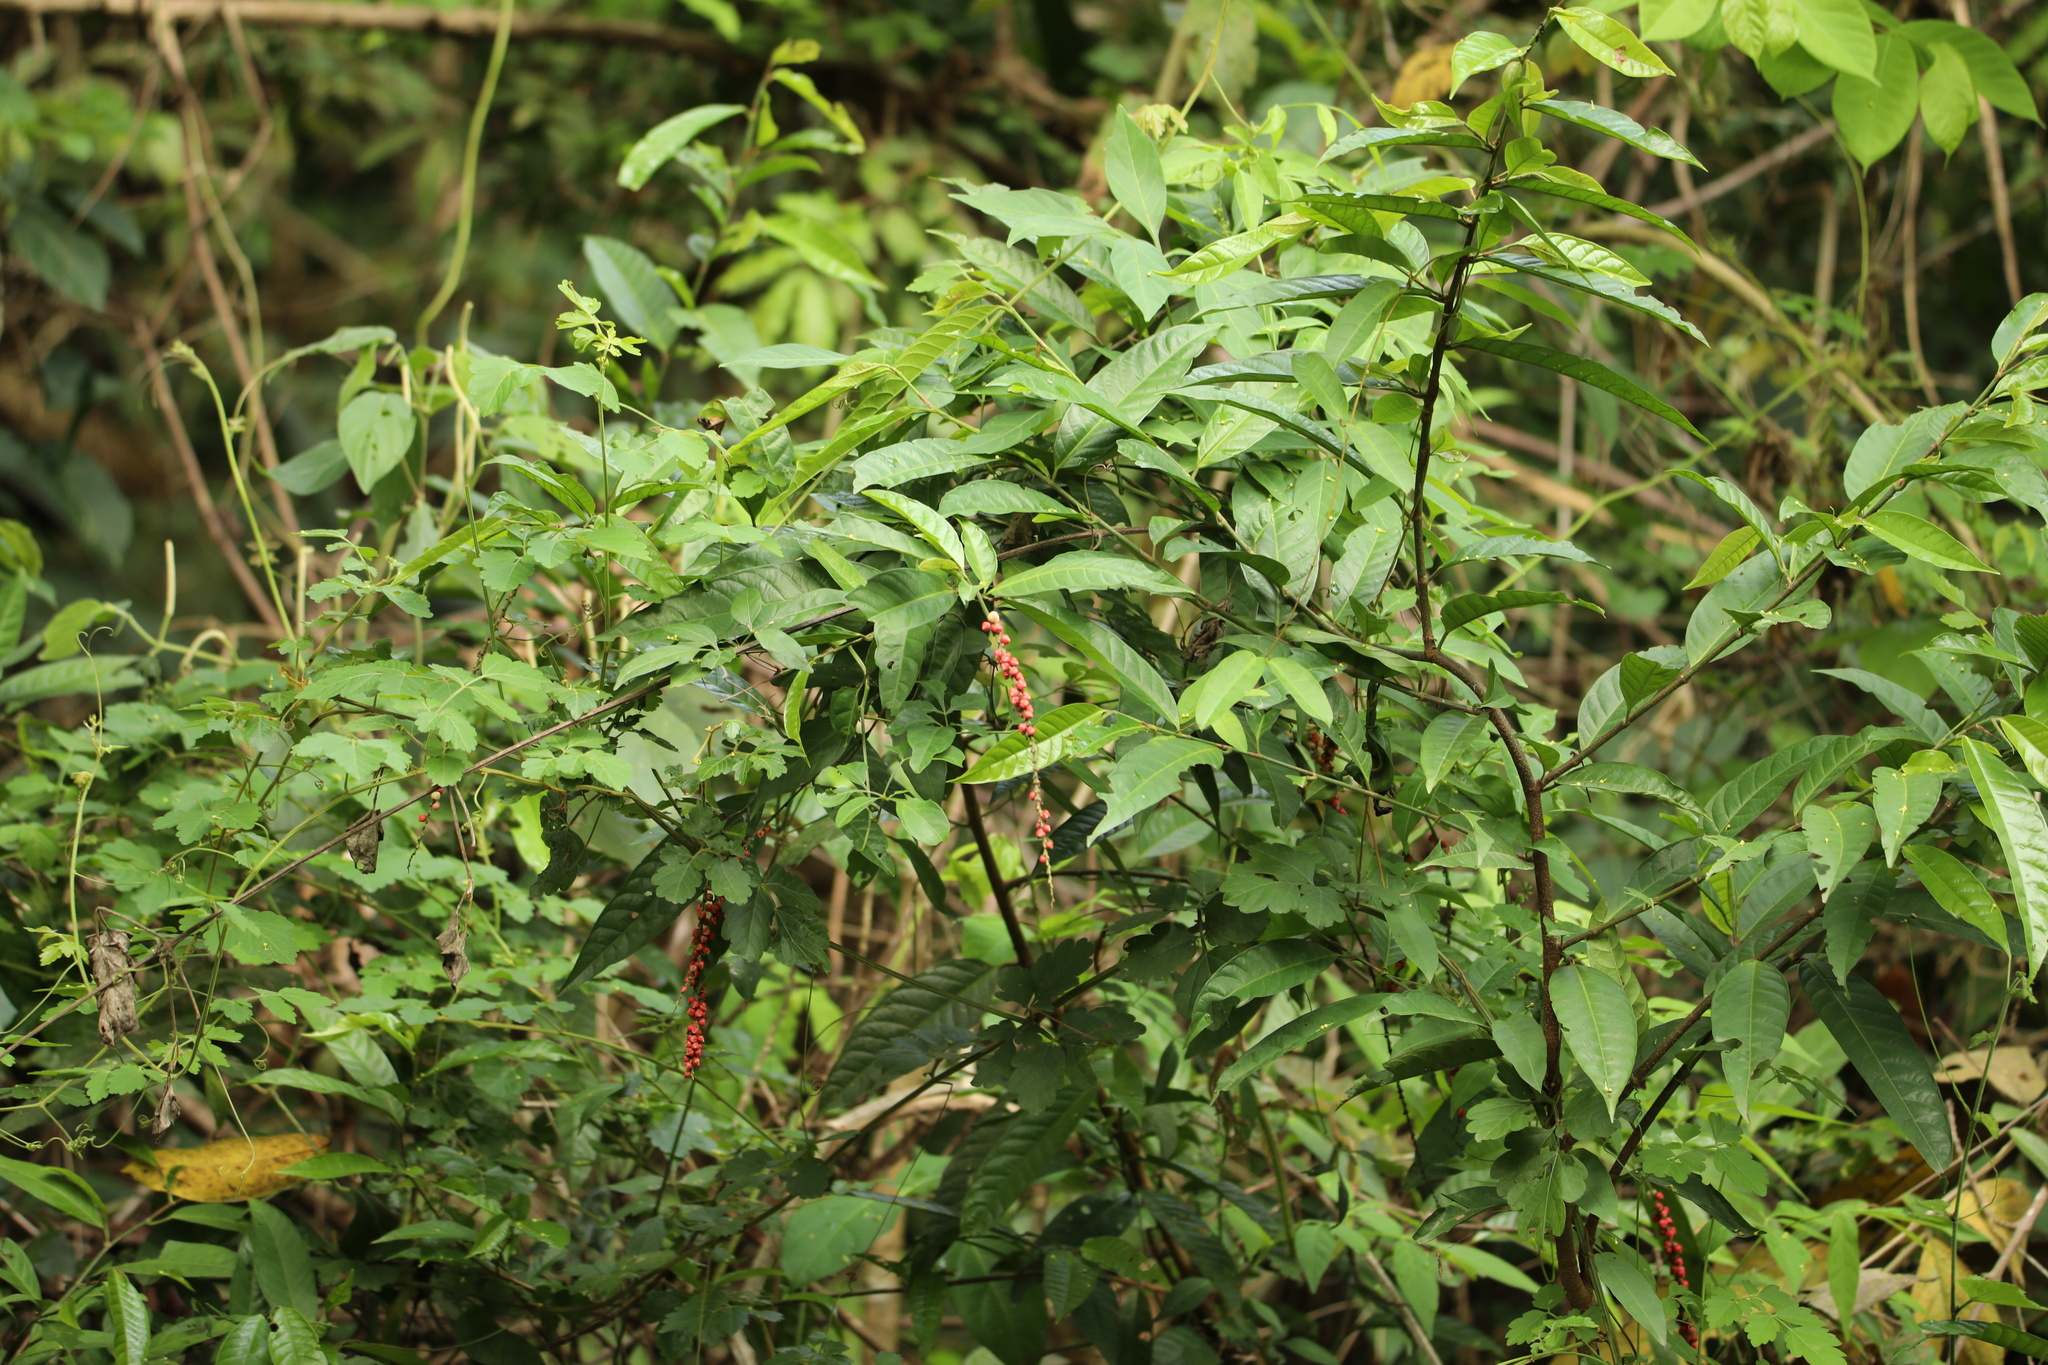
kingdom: Plantae
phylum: Tracheophyta
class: Magnoliopsida
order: Caryophyllales
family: Polygonaceae
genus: Coccoloba
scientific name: Coccoloba acuminata
